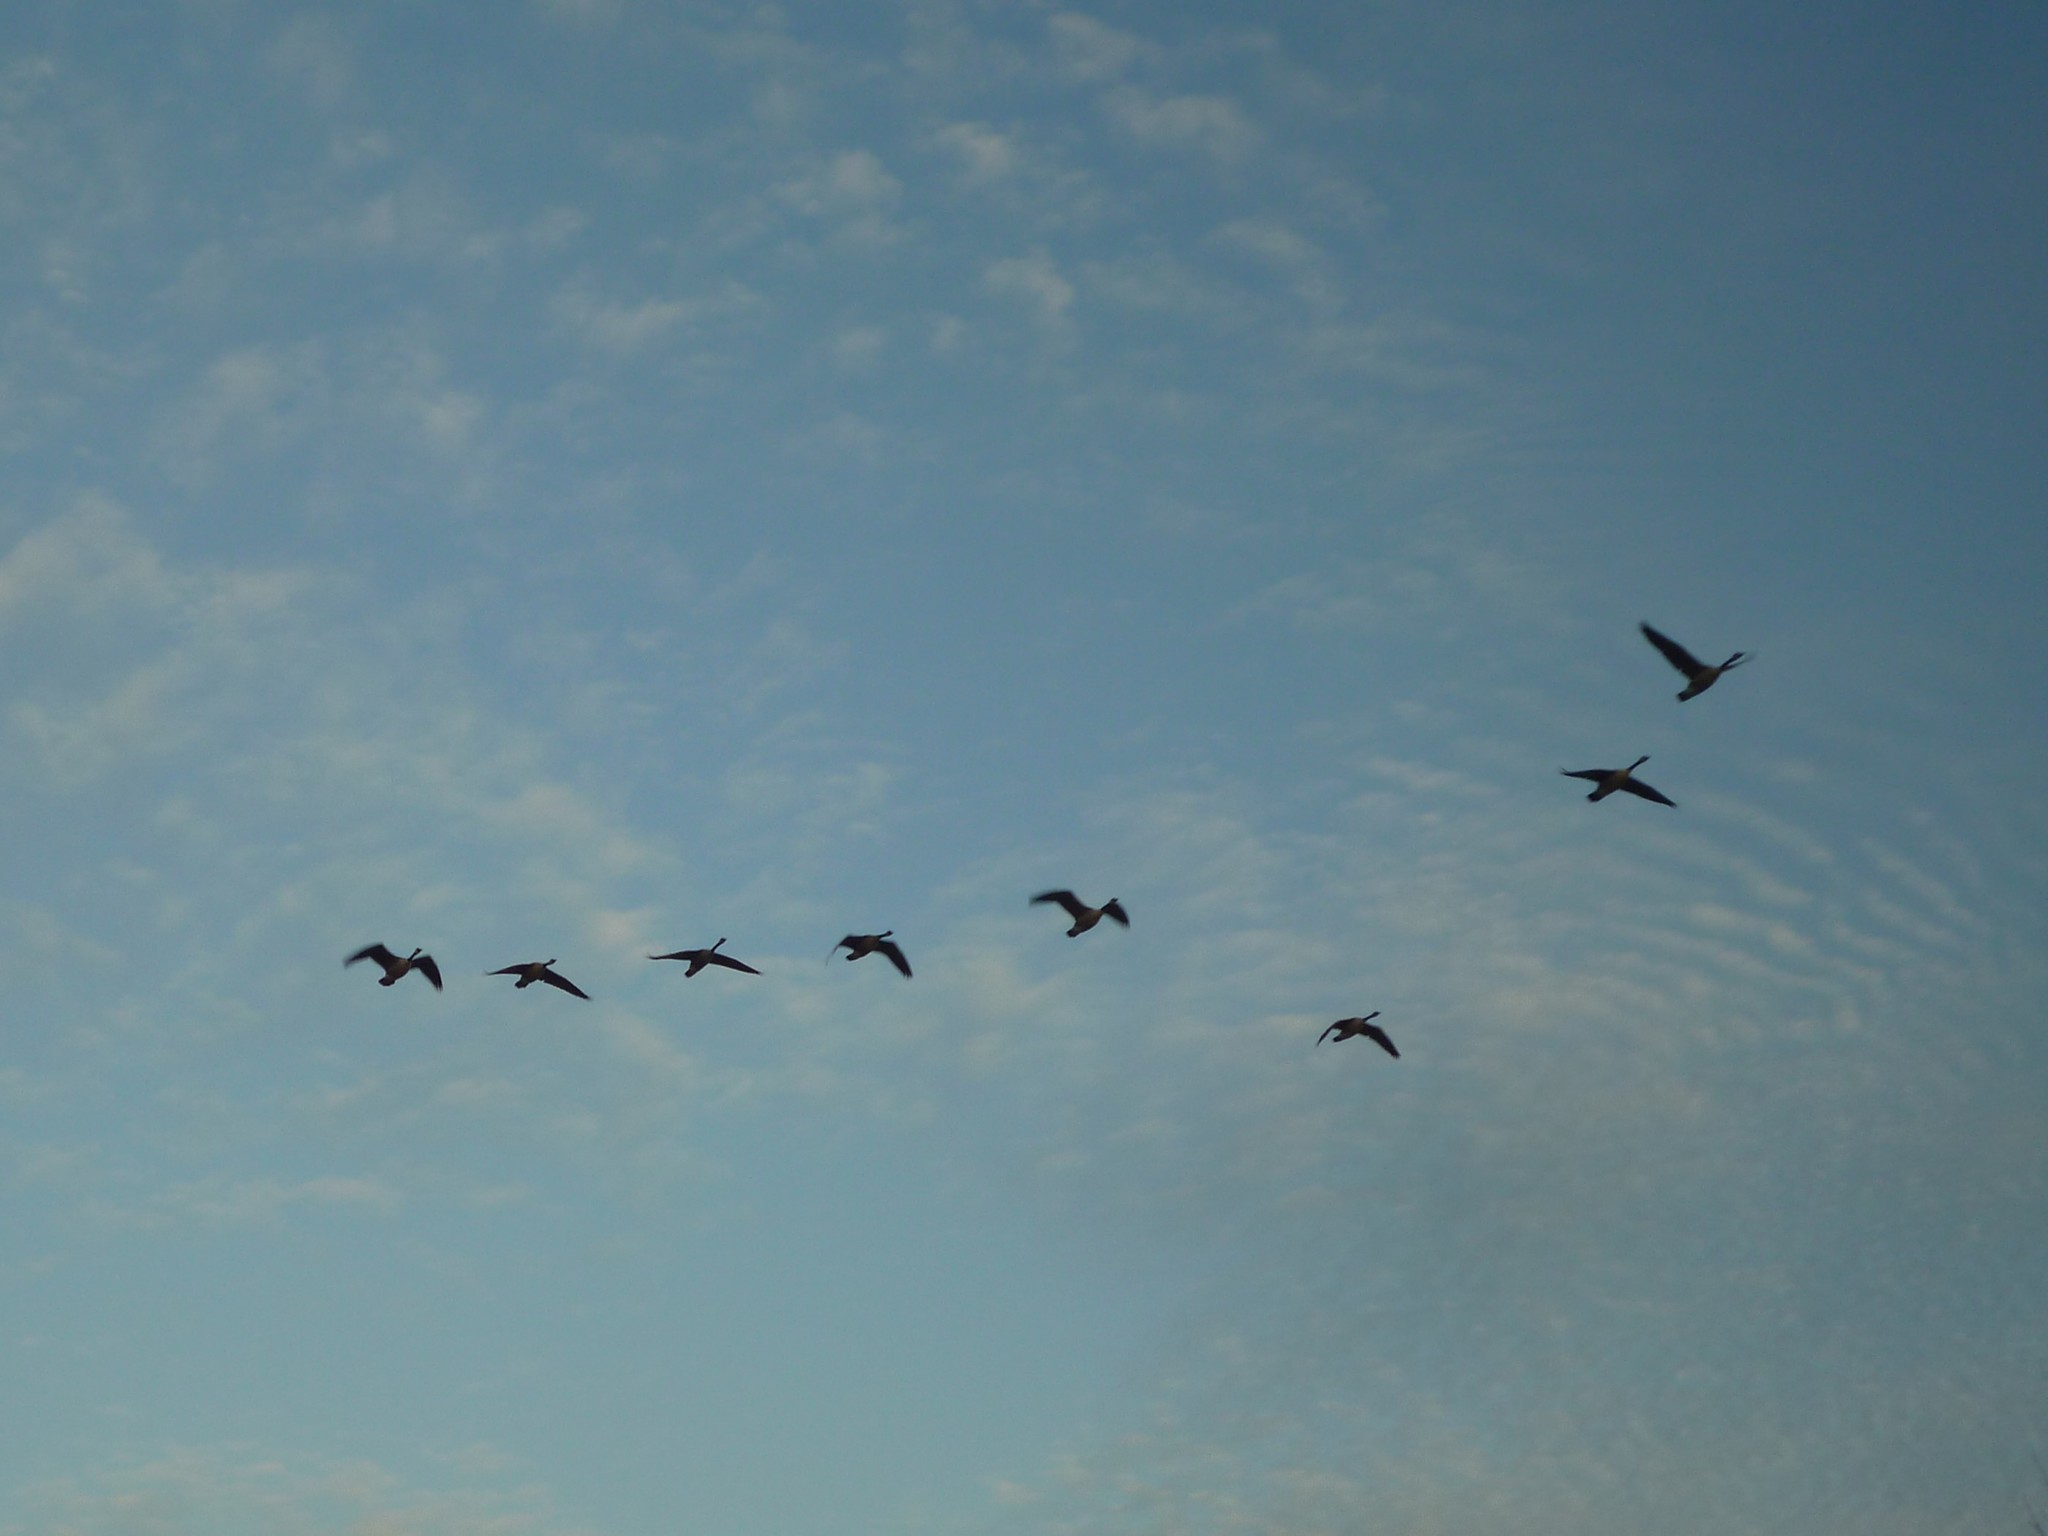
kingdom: Animalia
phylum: Chordata
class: Aves
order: Anseriformes
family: Anatidae
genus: Branta
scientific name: Branta canadensis
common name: Canada goose
